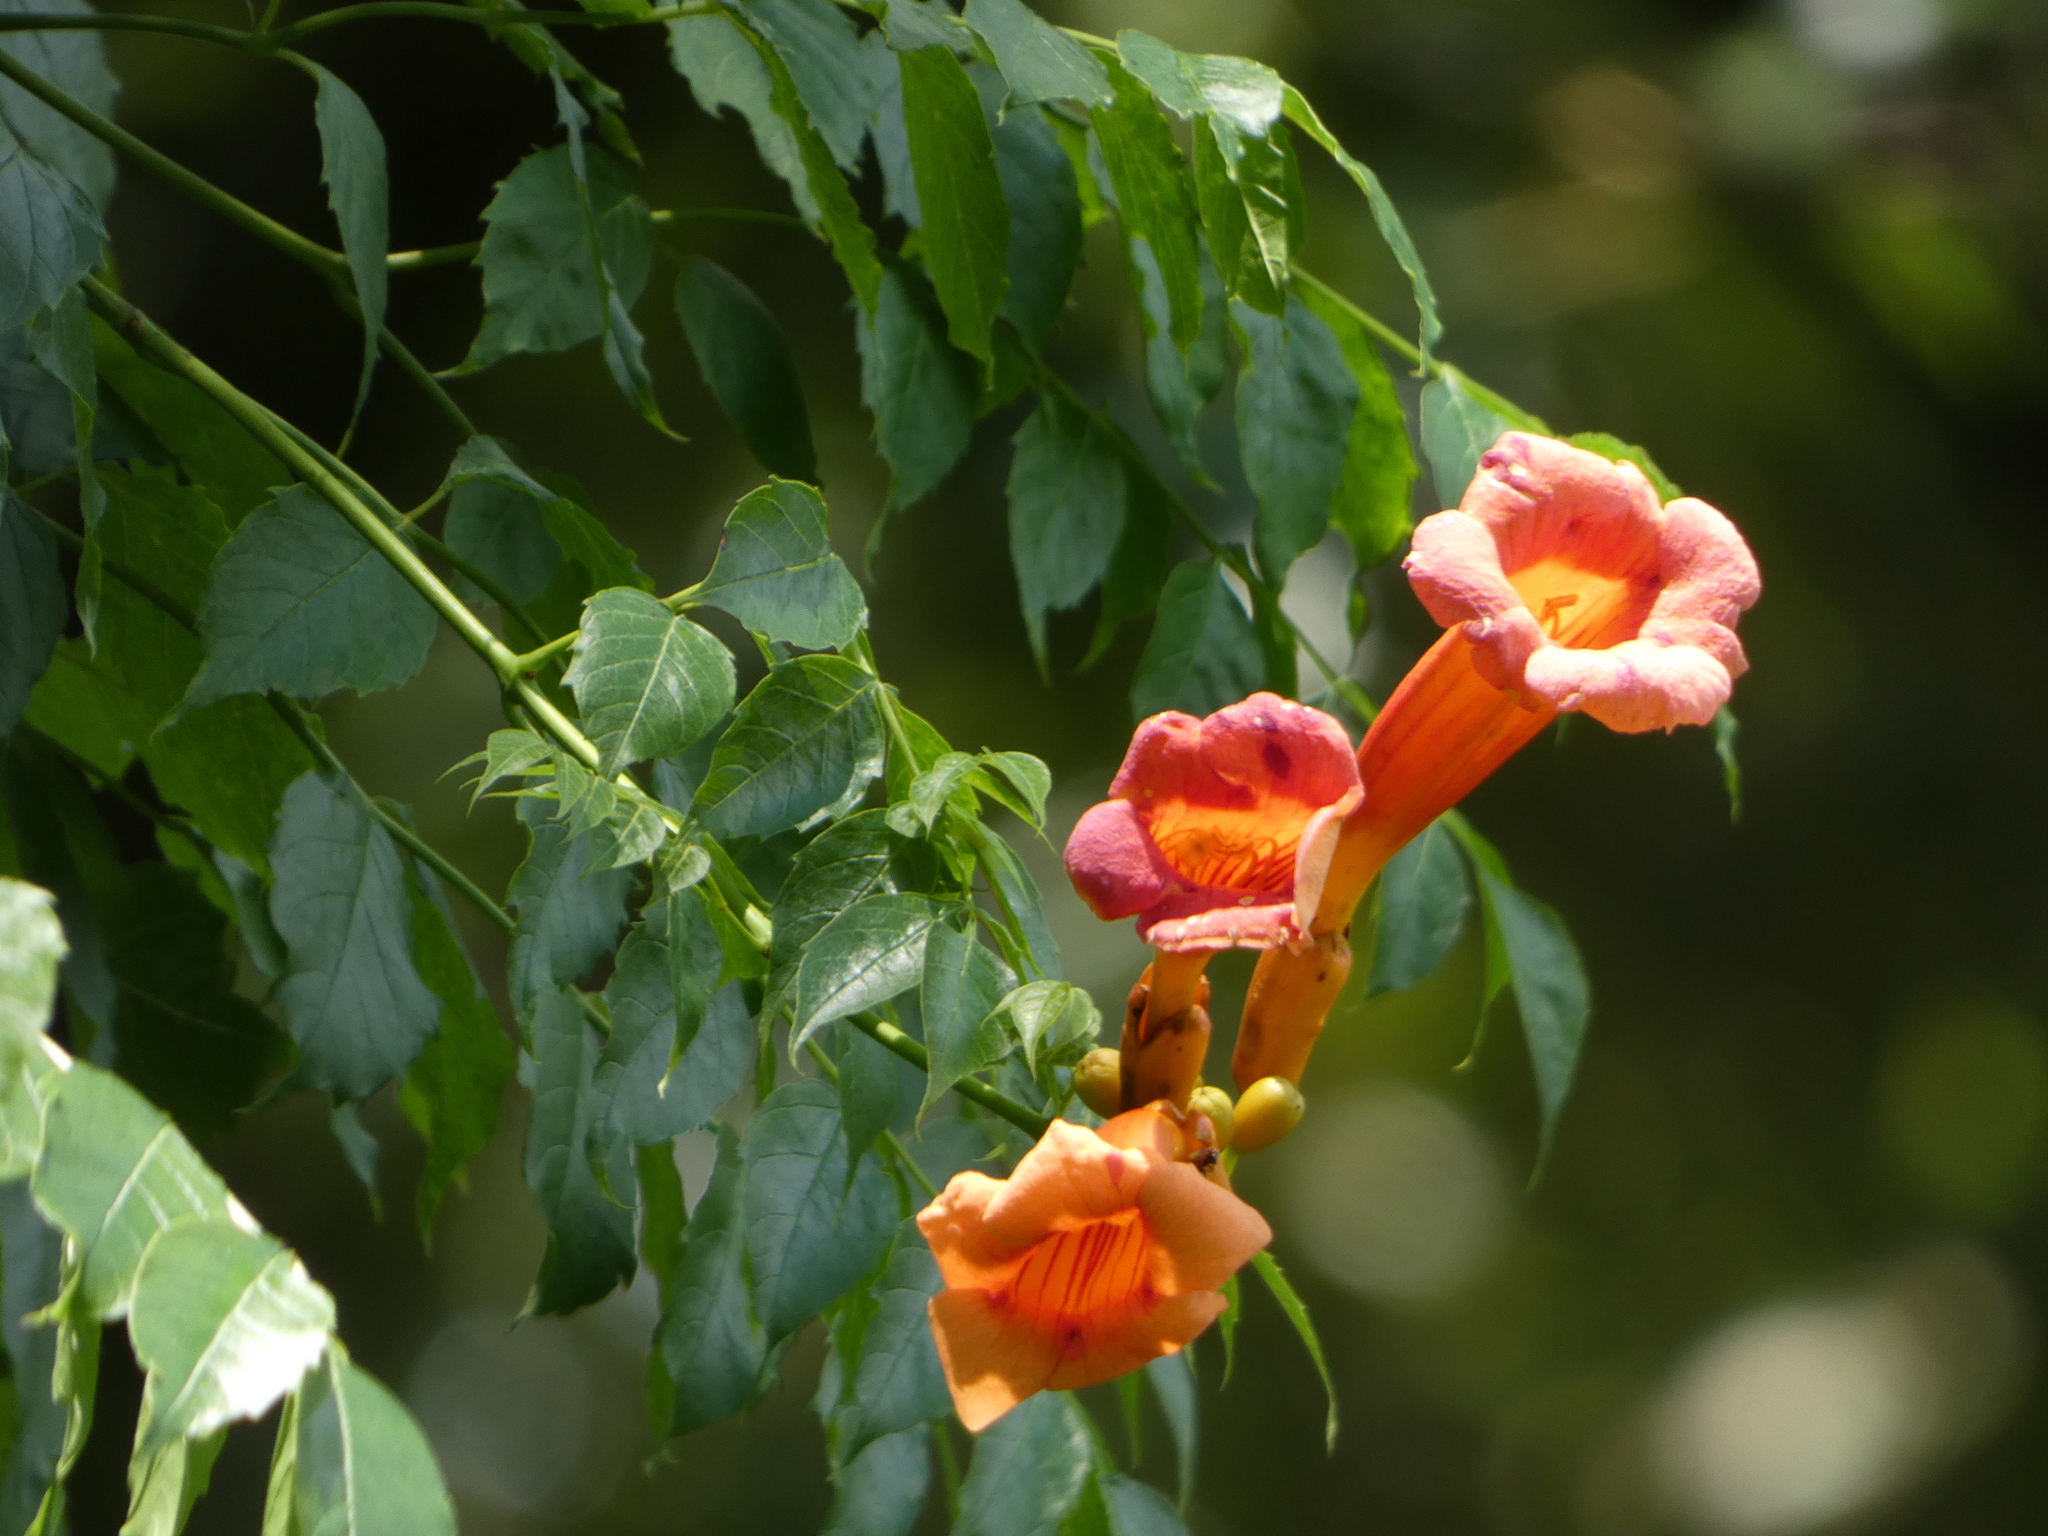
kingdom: Plantae
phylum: Tracheophyta
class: Magnoliopsida
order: Lamiales
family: Bignoniaceae
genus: Campsis
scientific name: Campsis radicans
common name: Trumpet-creeper
